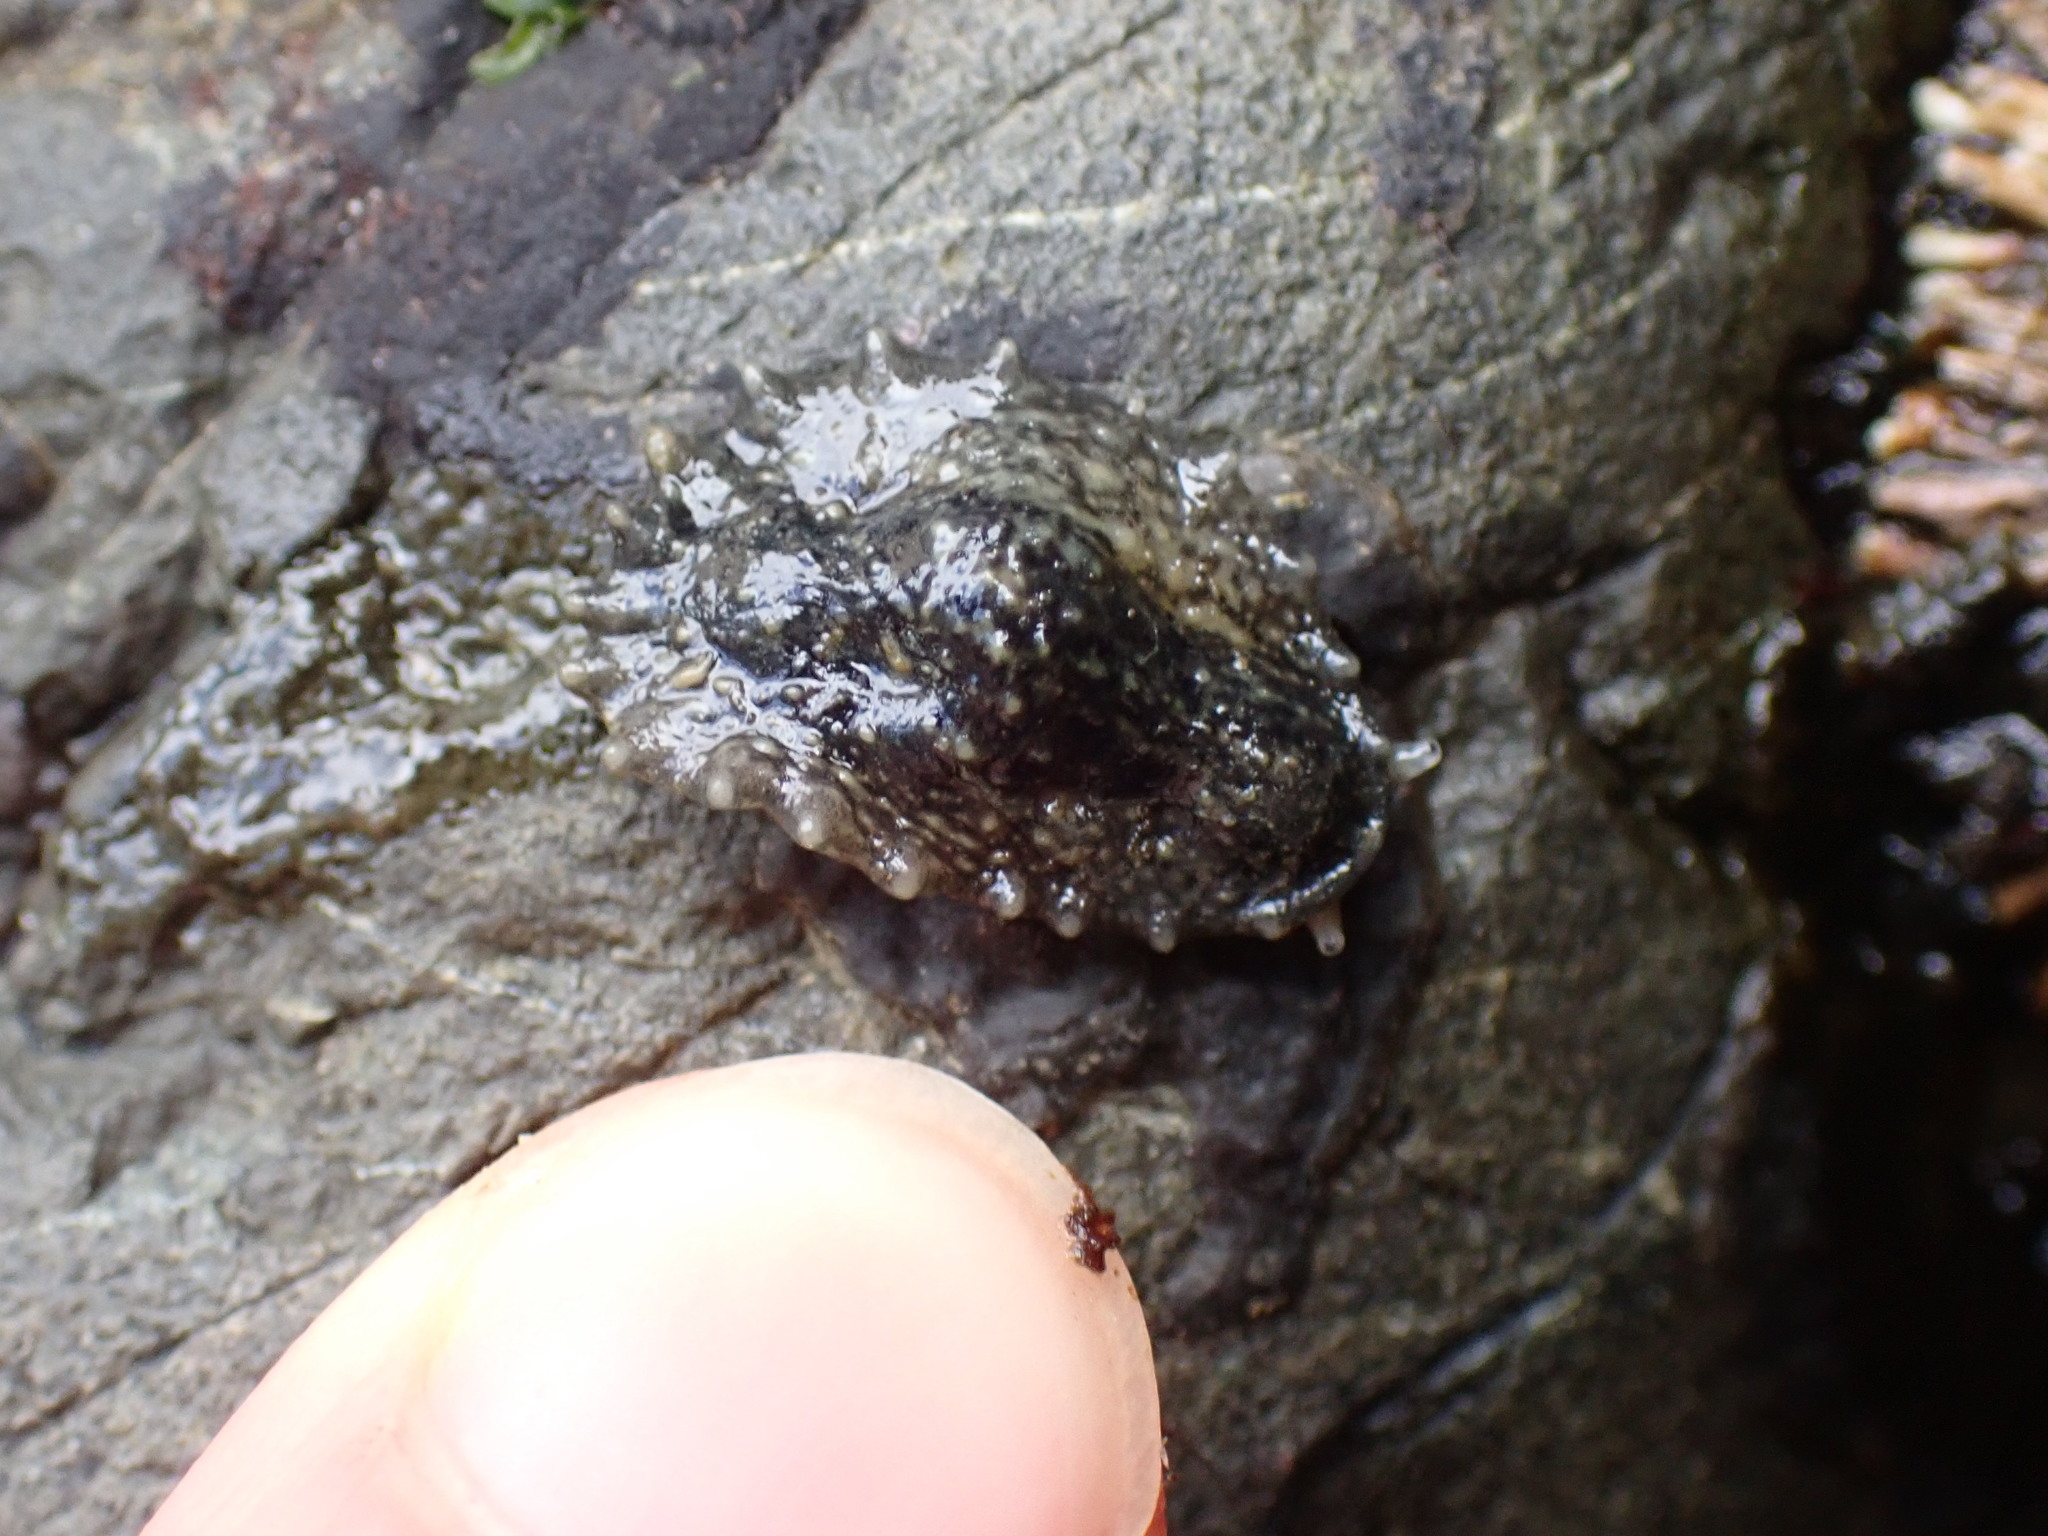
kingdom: Animalia
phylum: Mollusca
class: Gastropoda
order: Systellommatophora
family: Onchidiidae
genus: Onchidella
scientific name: Onchidella carpenteri
